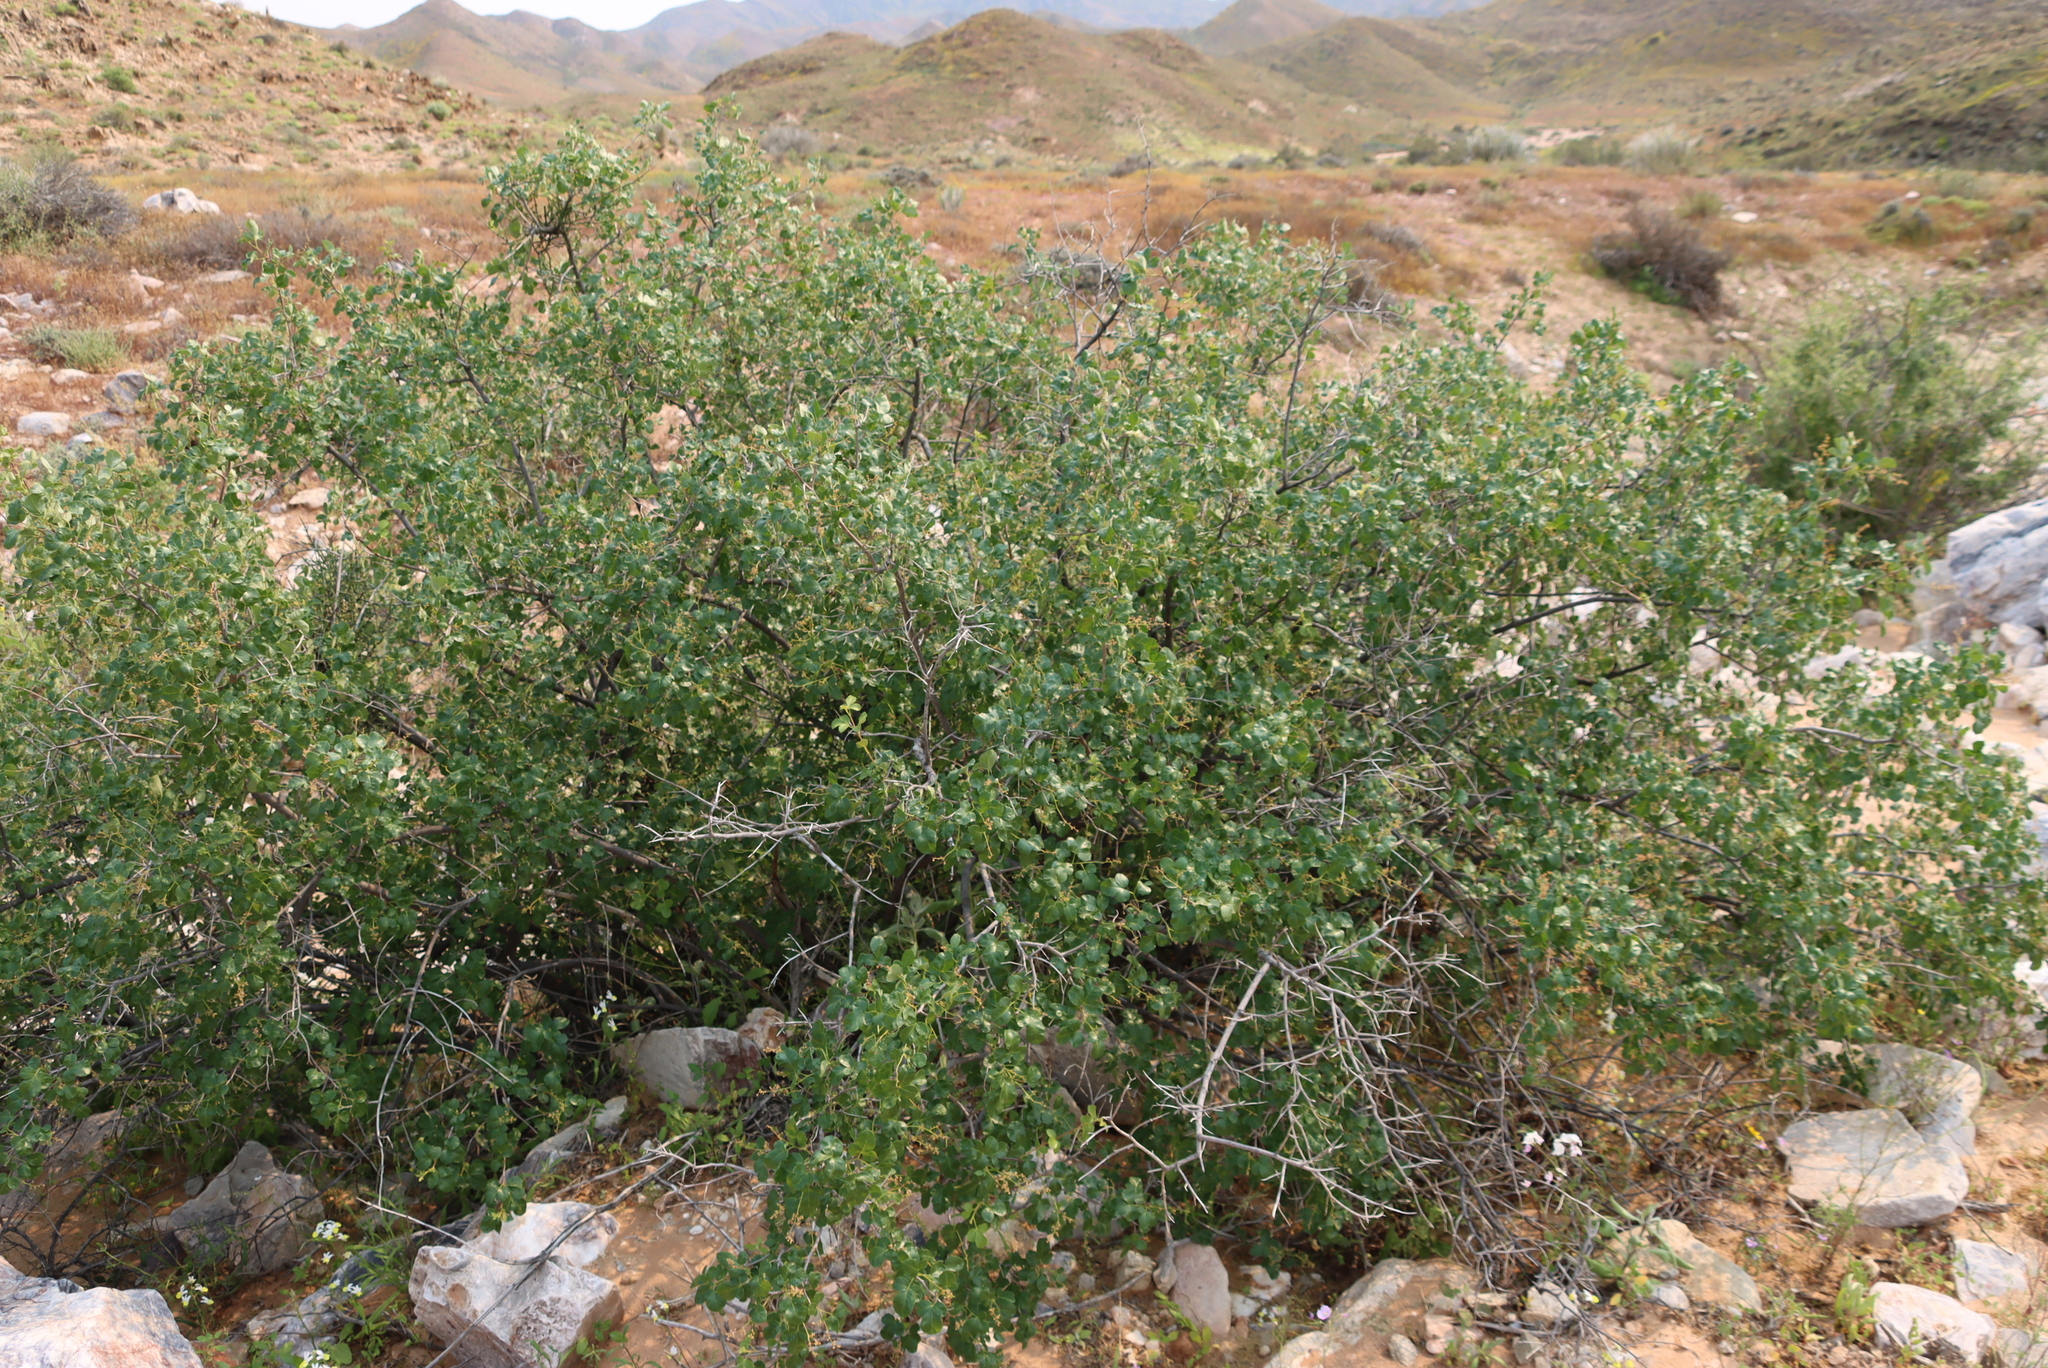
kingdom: Plantae
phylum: Tracheophyta
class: Magnoliopsida
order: Sapindales
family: Anacardiaceae
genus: Searsia
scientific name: Searsia populifolia
